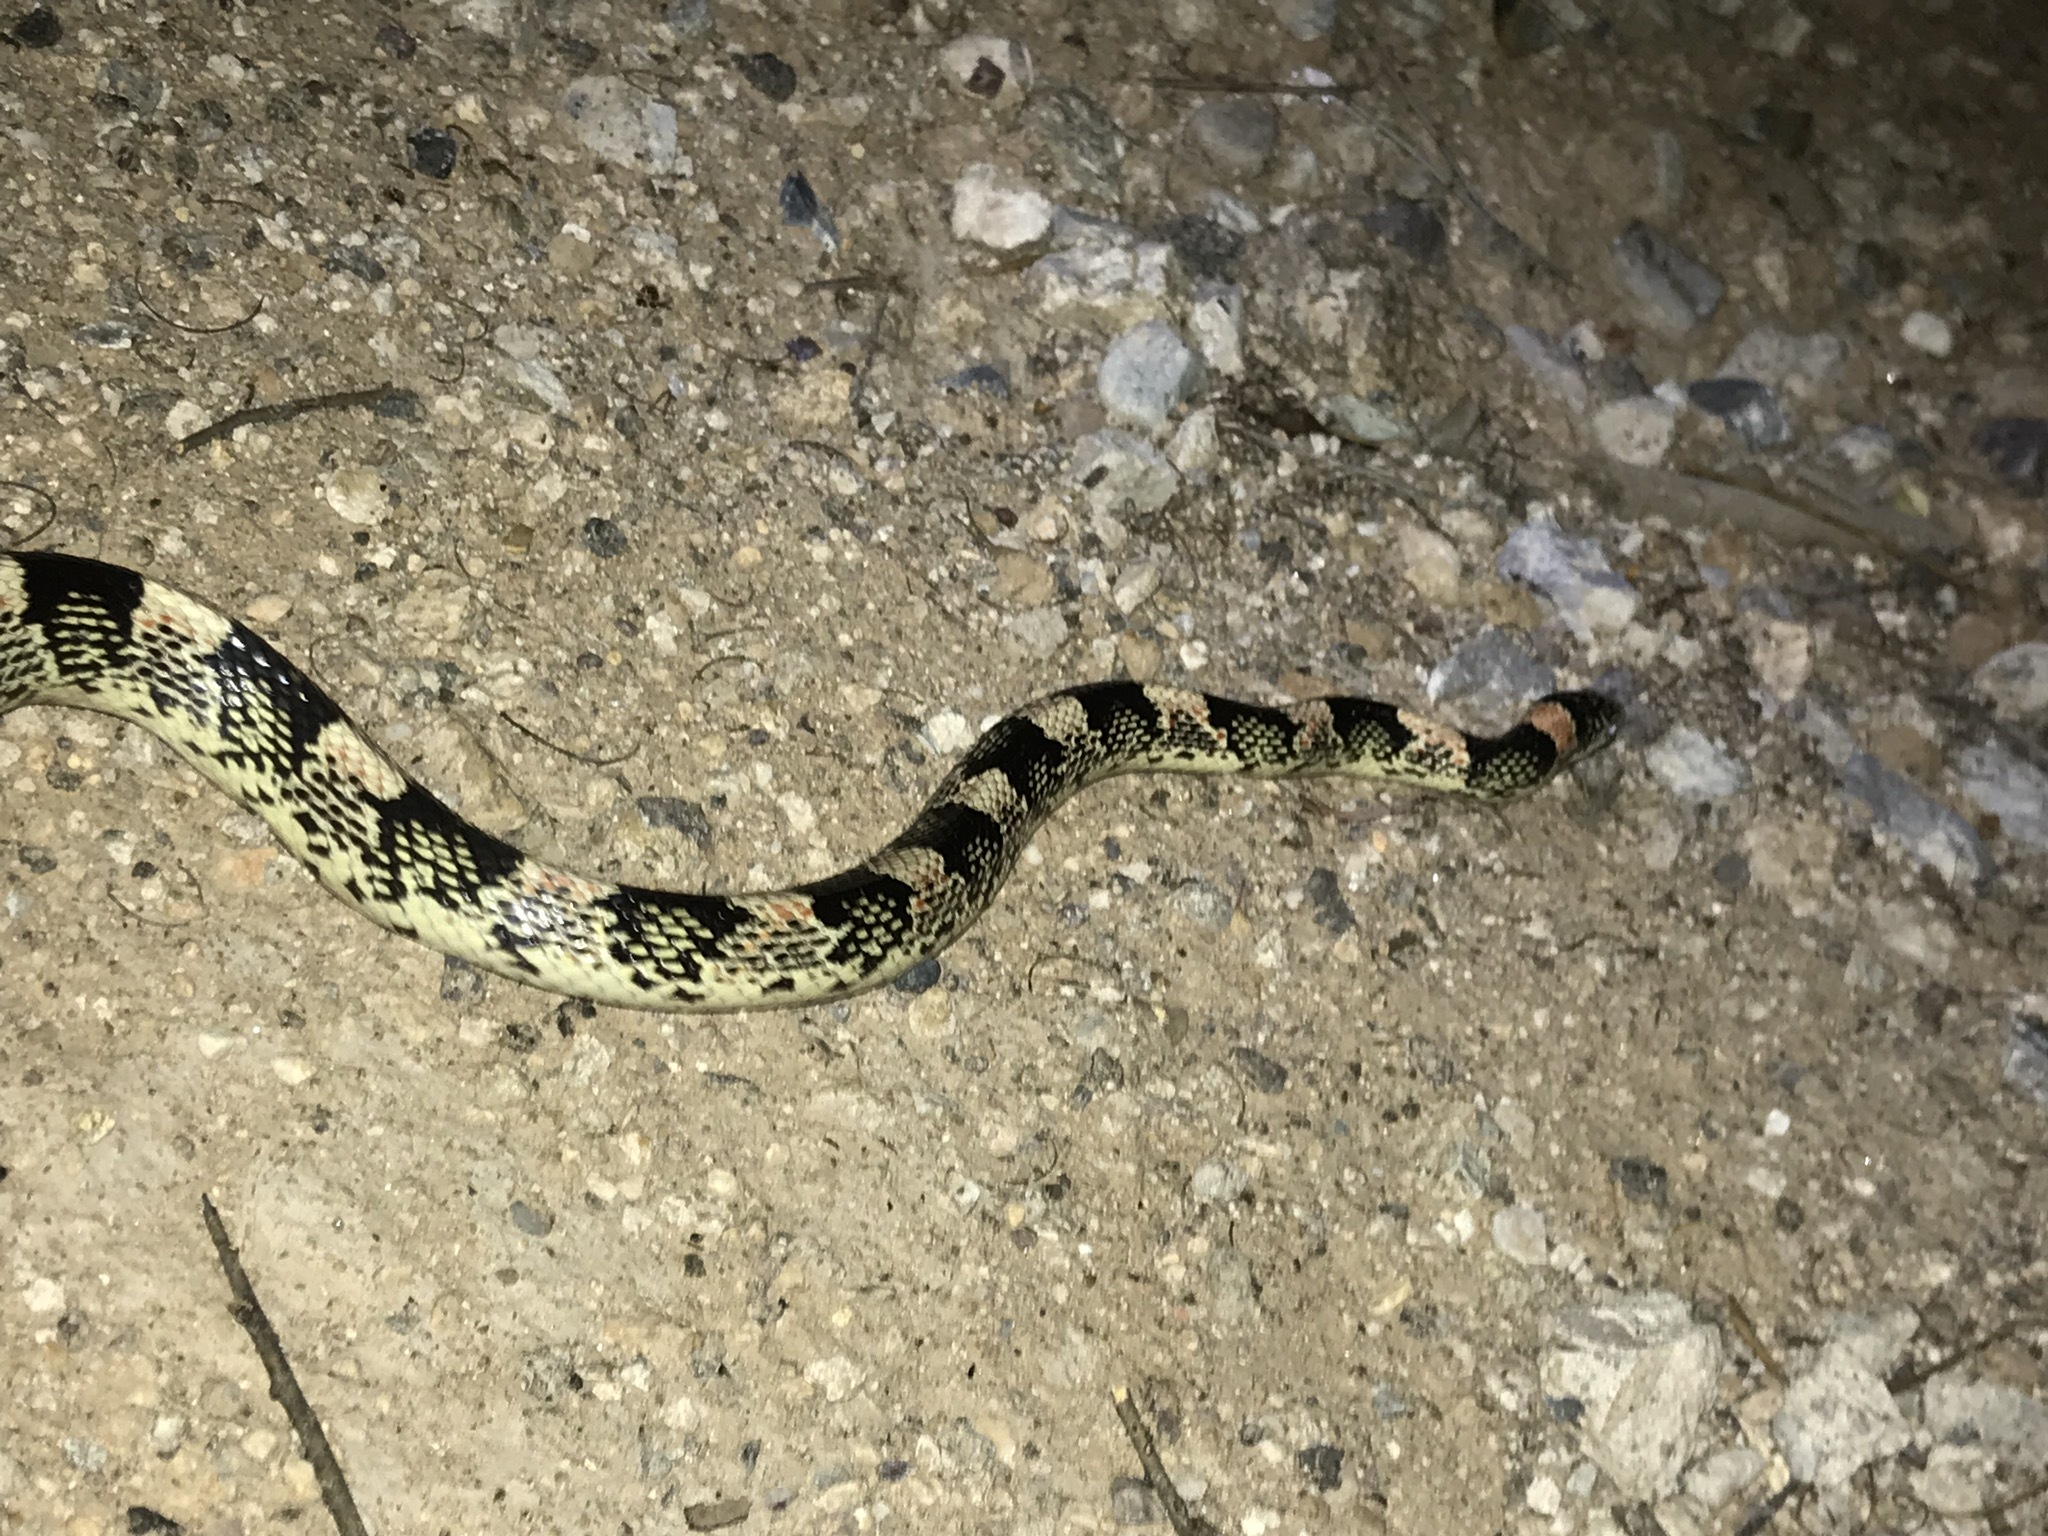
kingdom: Animalia
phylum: Chordata
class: Squamata
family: Colubridae
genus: Rhinocheilus
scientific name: Rhinocheilus lecontei
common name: Longnose snake
